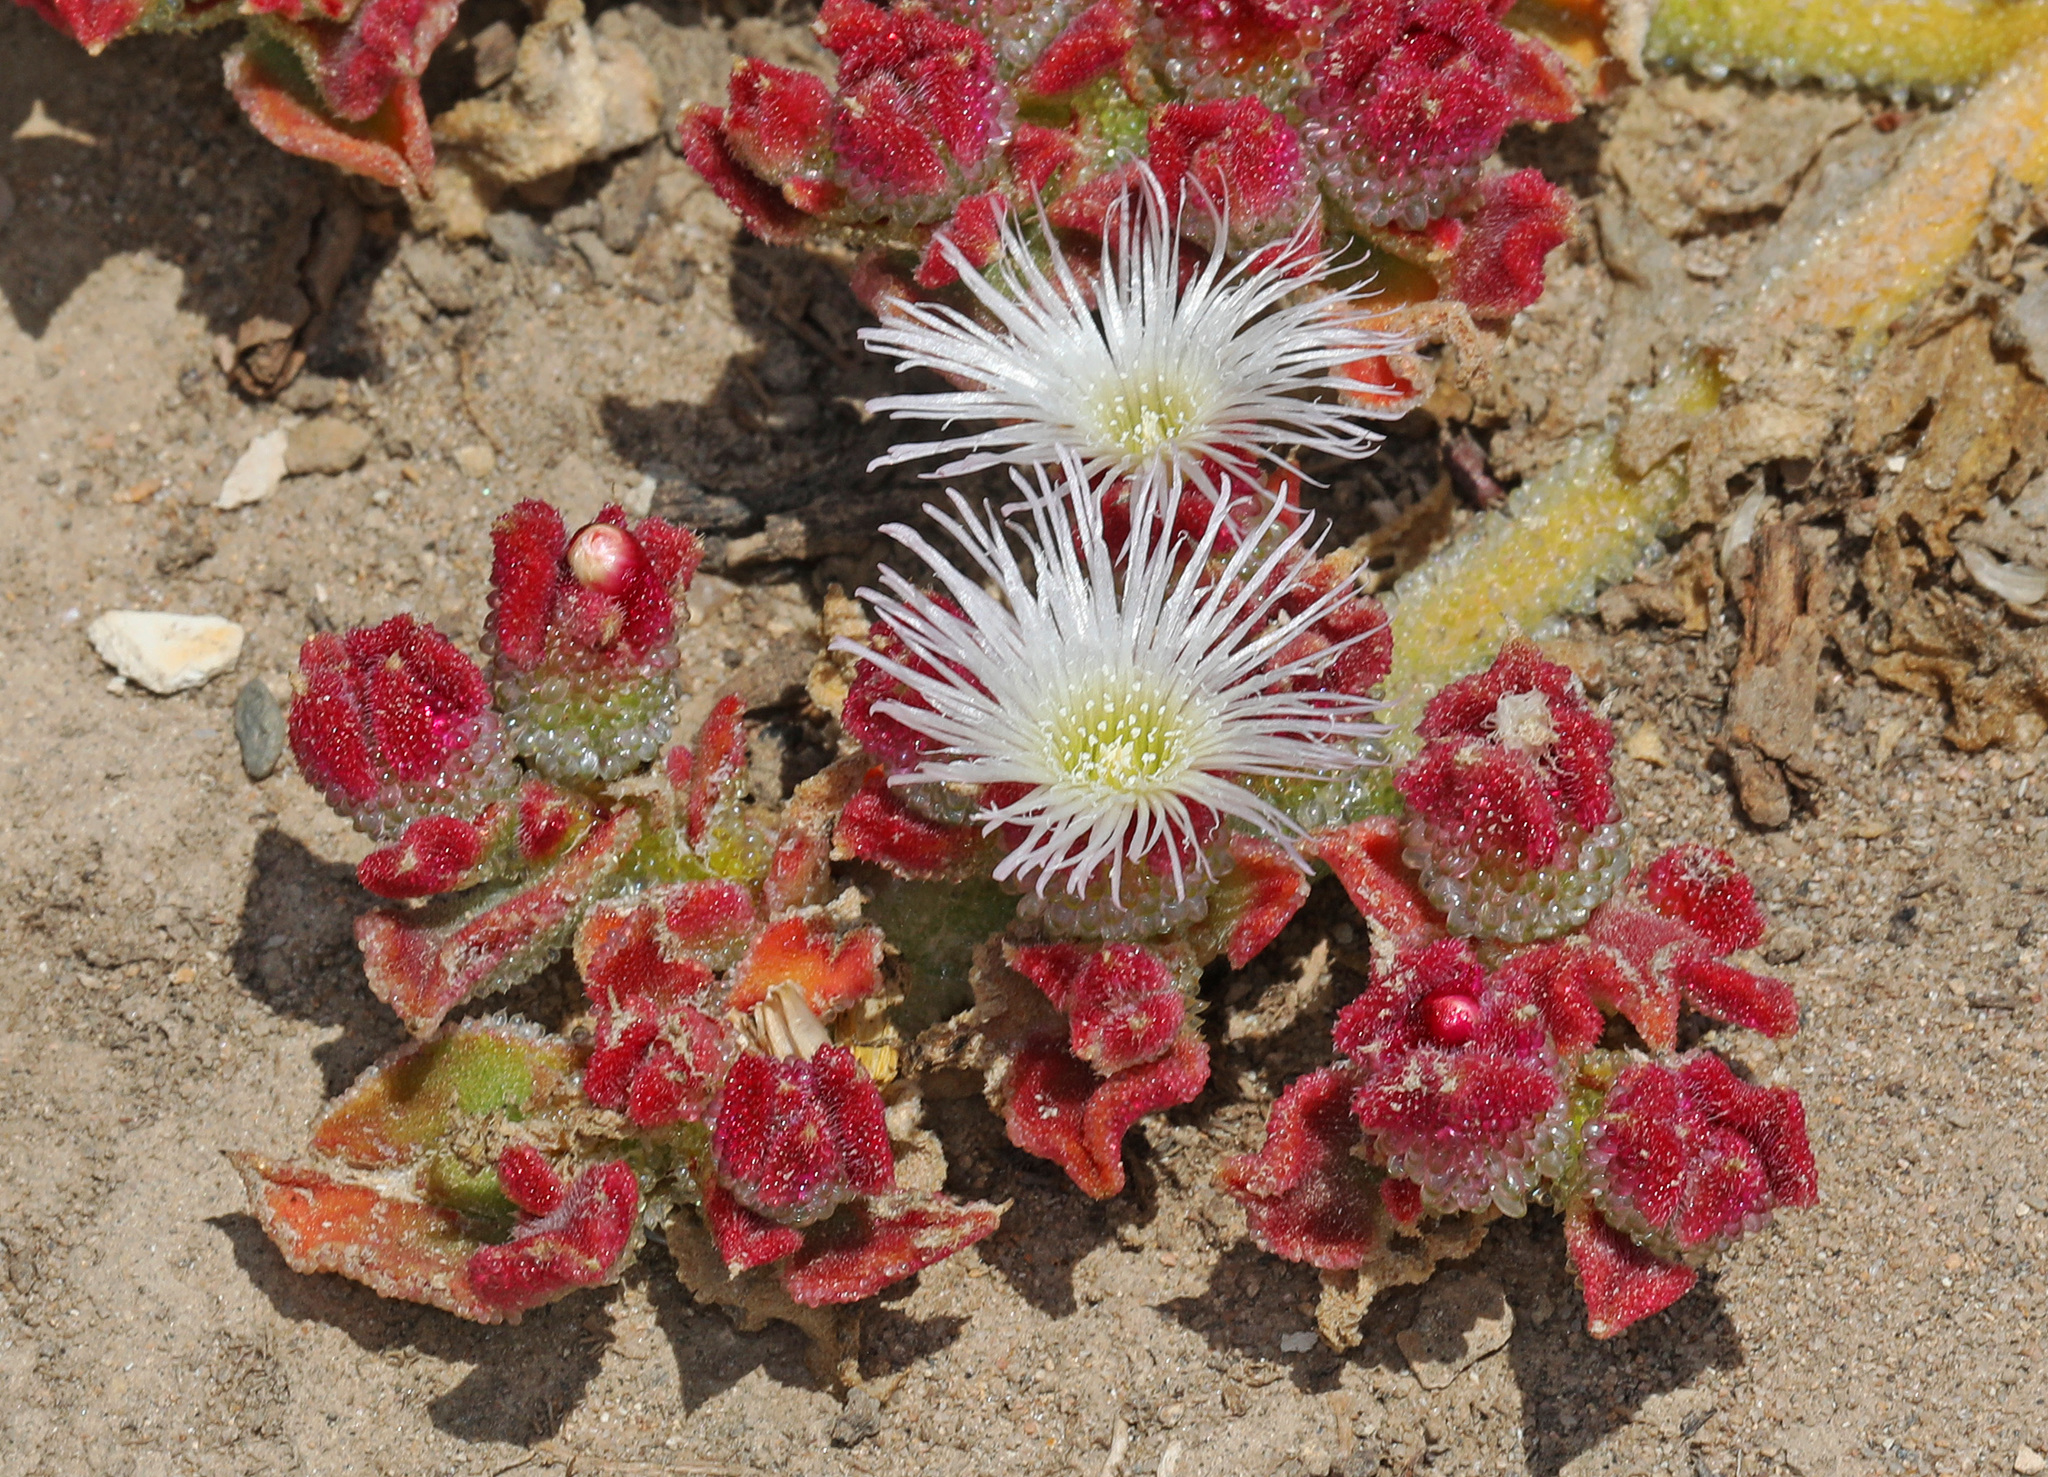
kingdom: Plantae
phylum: Tracheophyta
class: Magnoliopsida
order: Caryophyllales
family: Aizoaceae
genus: Mesembryanthemum
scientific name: Mesembryanthemum crystallinum
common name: Common iceplant
